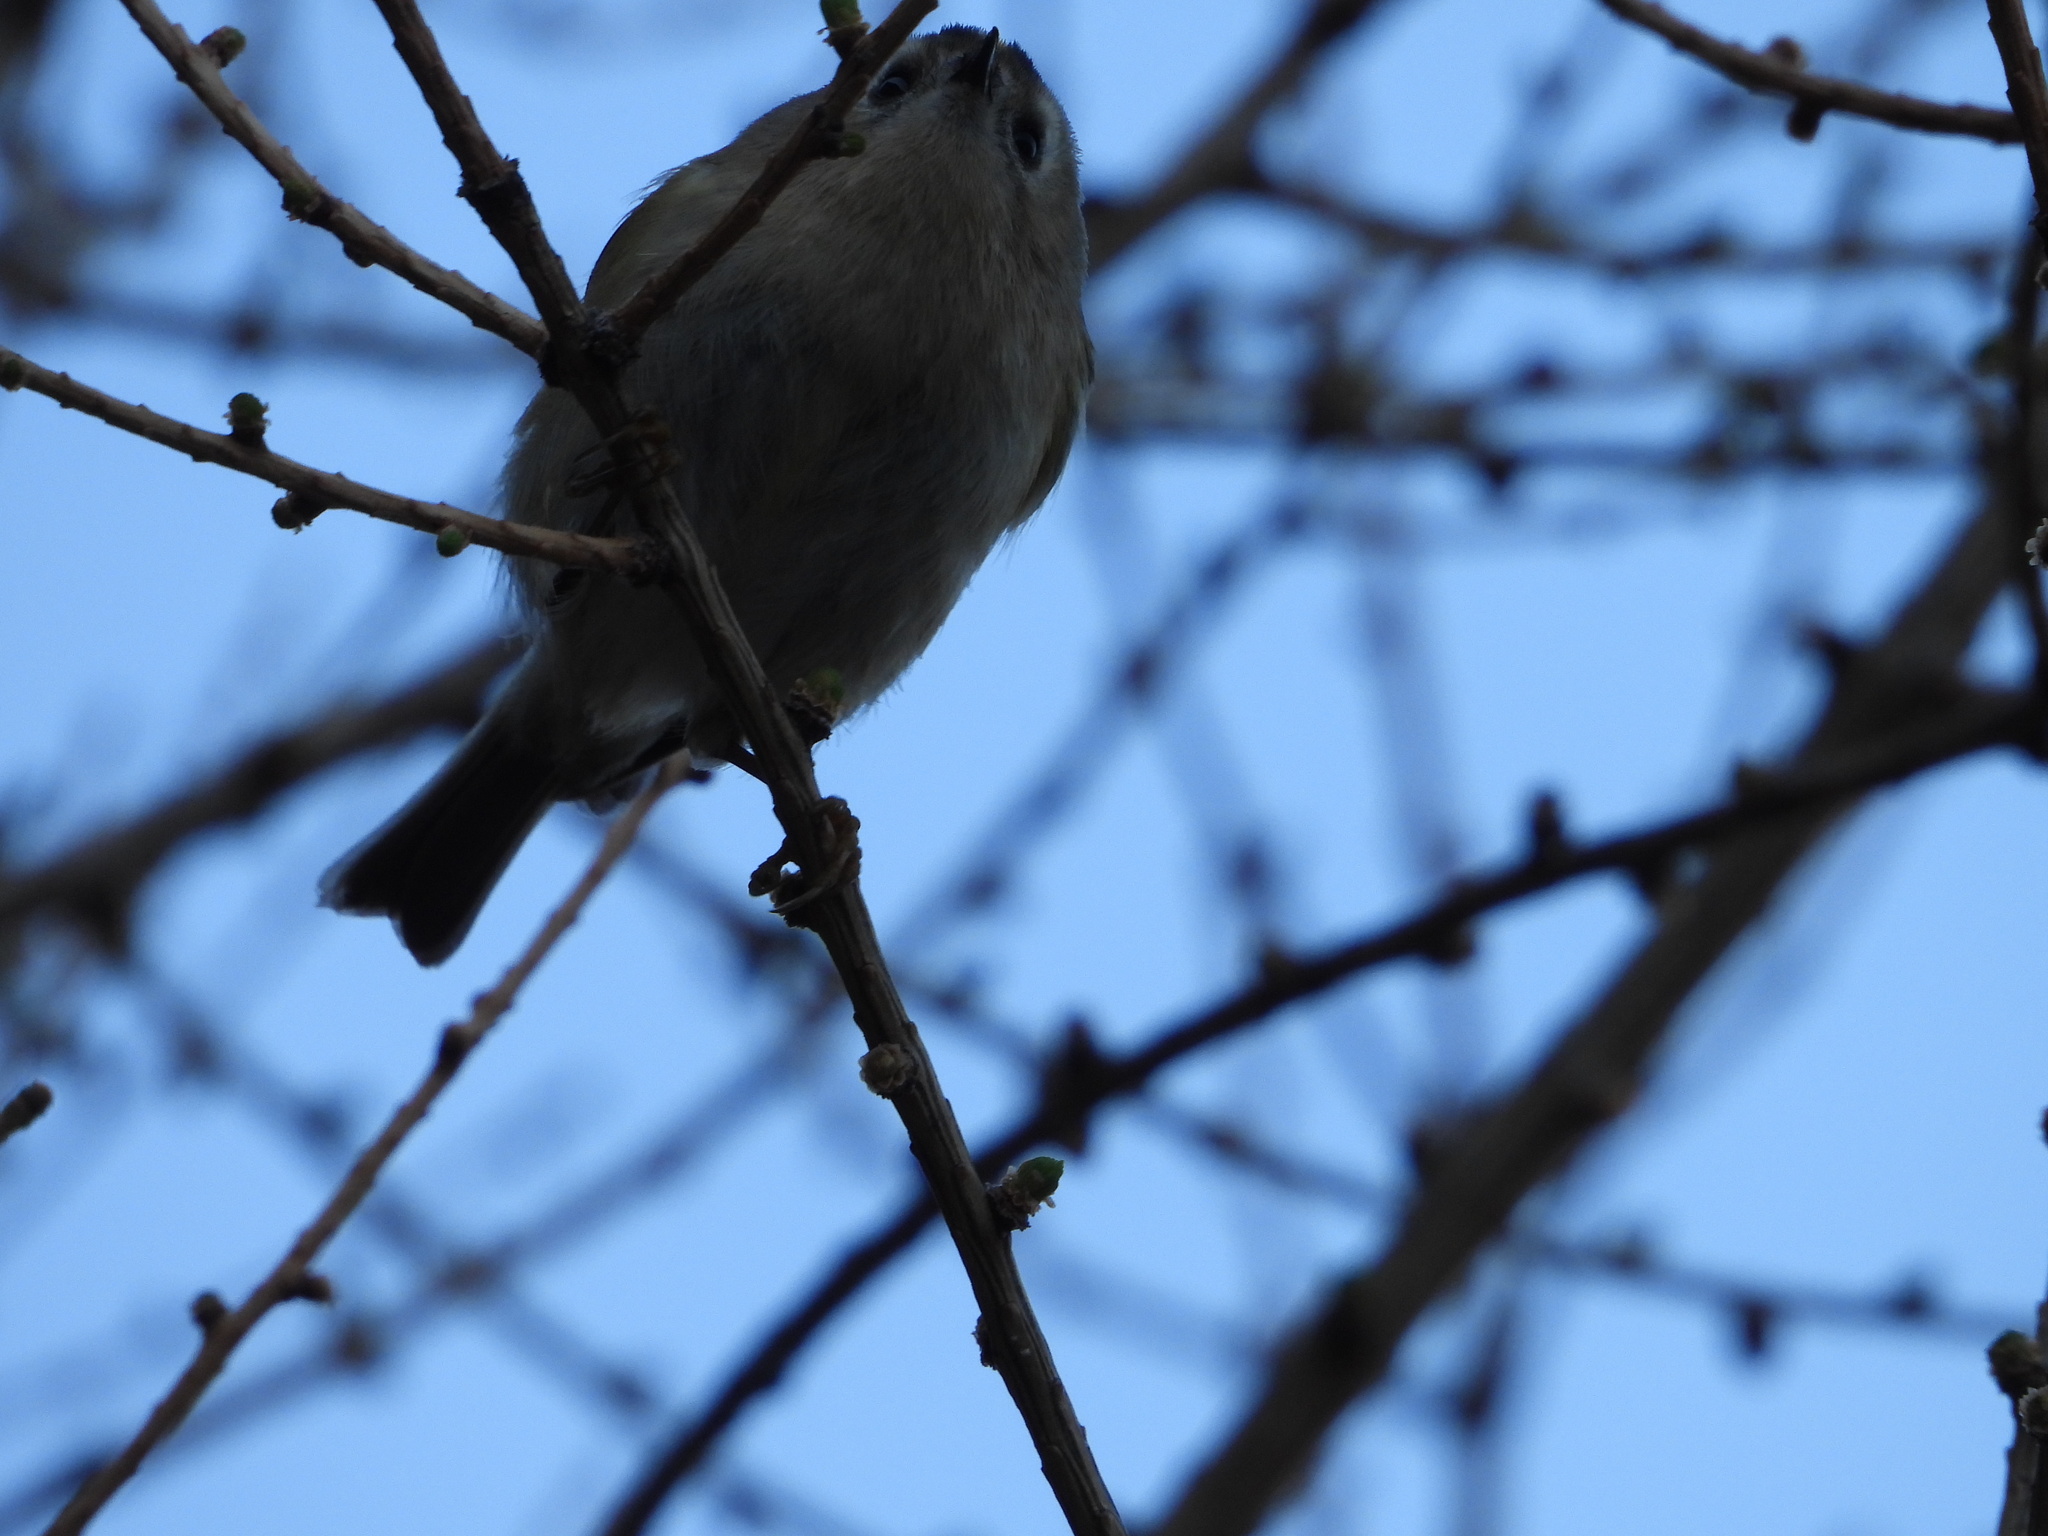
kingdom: Animalia
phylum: Chordata
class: Aves
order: Passeriformes
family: Regulidae
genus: Regulus
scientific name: Regulus regulus
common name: Goldcrest
